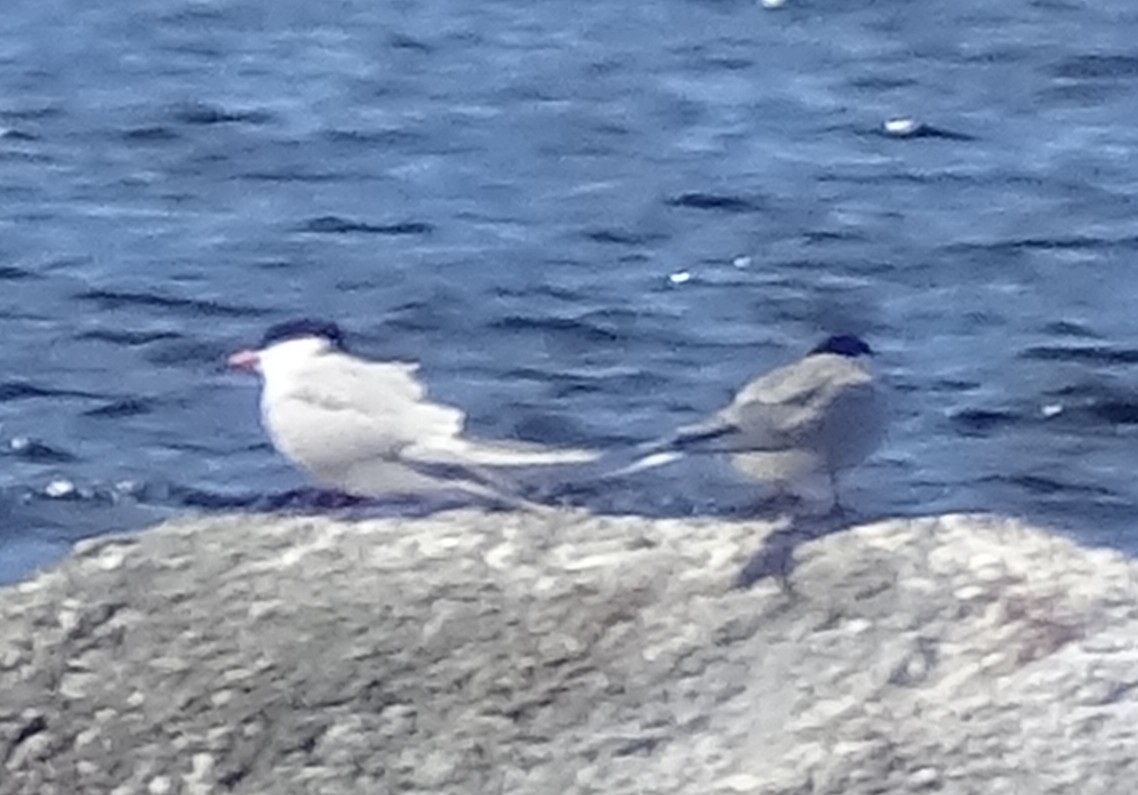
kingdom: Animalia
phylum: Chordata
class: Aves
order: Charadriiformes
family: Laridae
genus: Sterna
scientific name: Sterna hirundo
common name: Common tern
